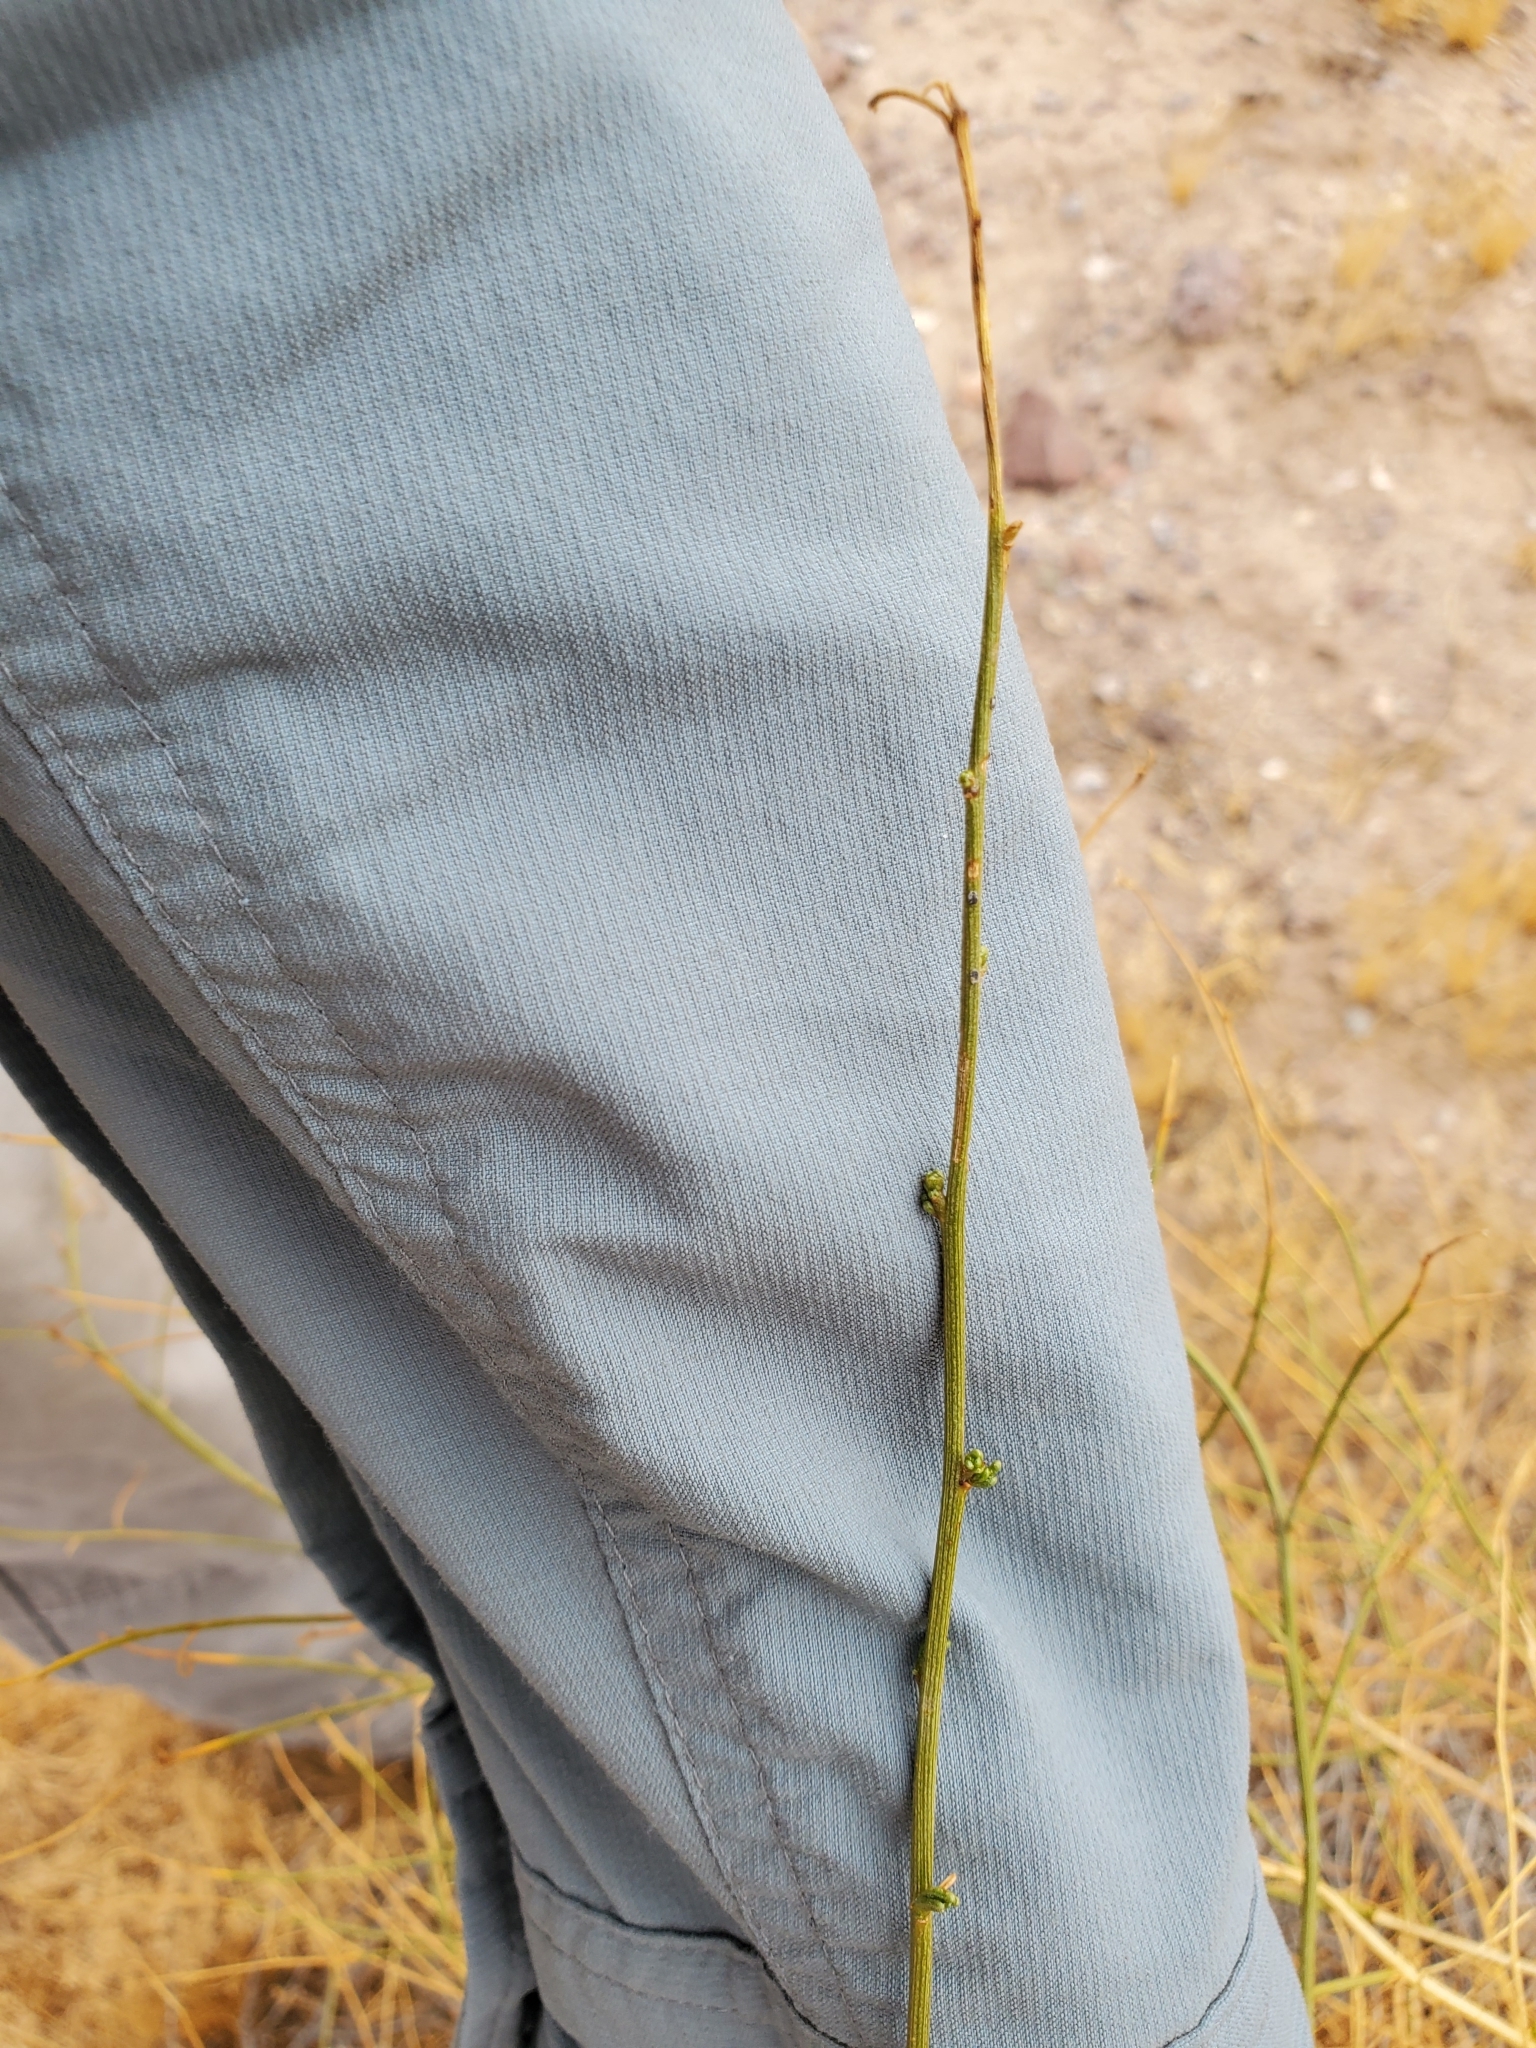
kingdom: Plantae
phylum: Tracheophyta
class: Magnoliopsida
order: Asterales
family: Asteraceae
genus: Ambrosia
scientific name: Ambrosia salsola
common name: Burrobrush
